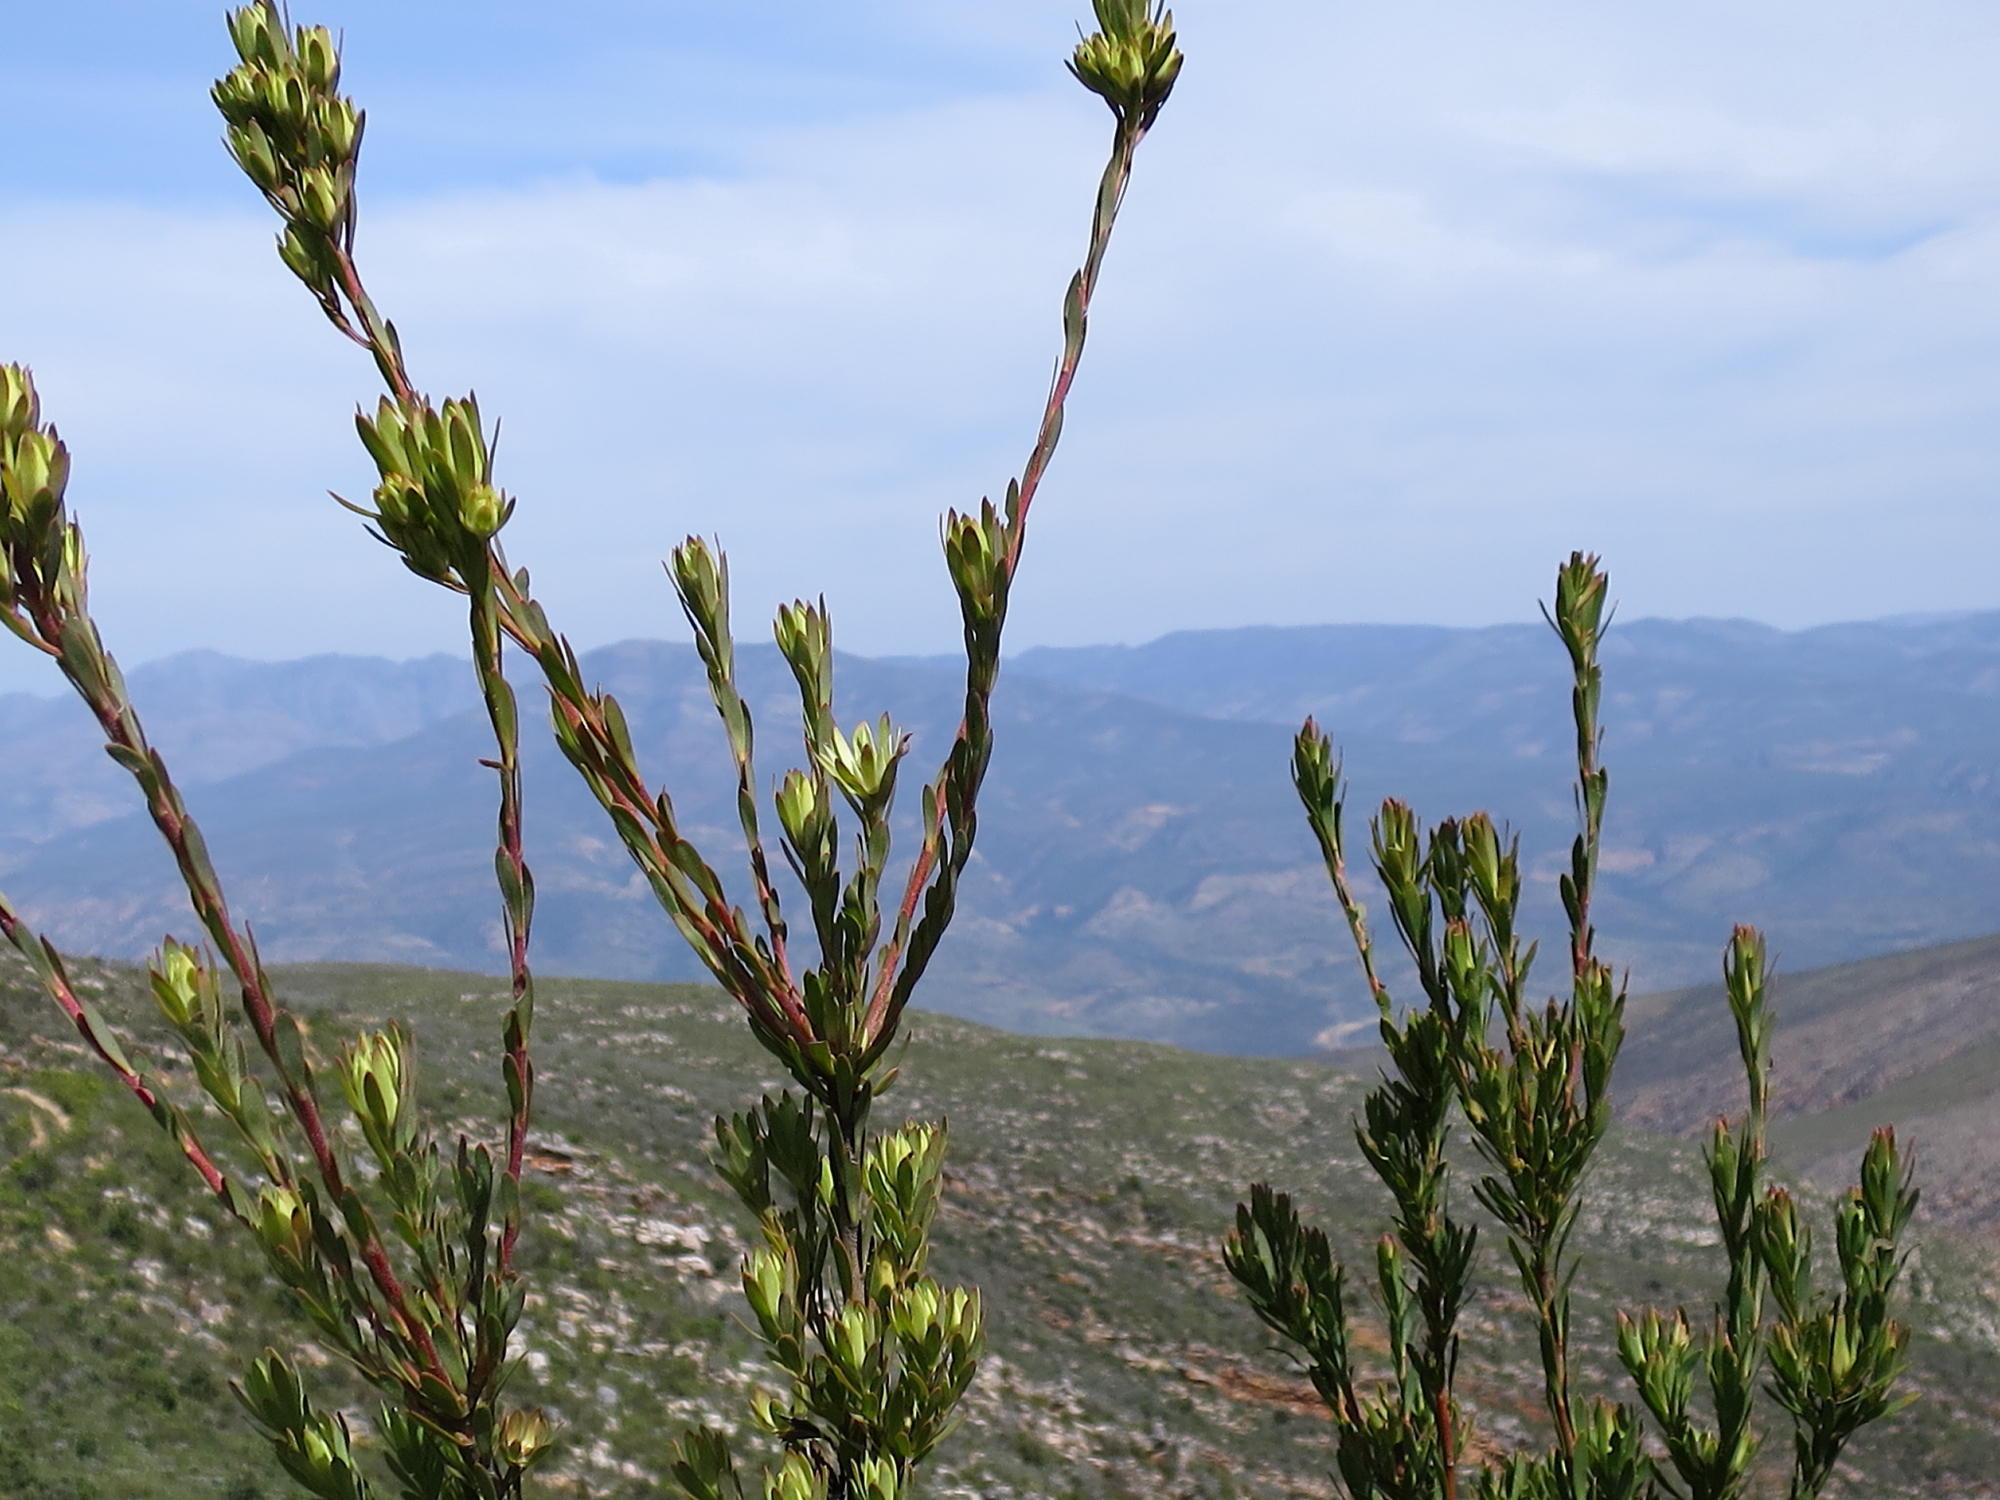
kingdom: Plantae
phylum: Tracheophyta
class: Magnoliopsida
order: Proteales
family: Proteaceae
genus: Leucadendron
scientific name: Leucadendron loeriense
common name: Loerie conebush
